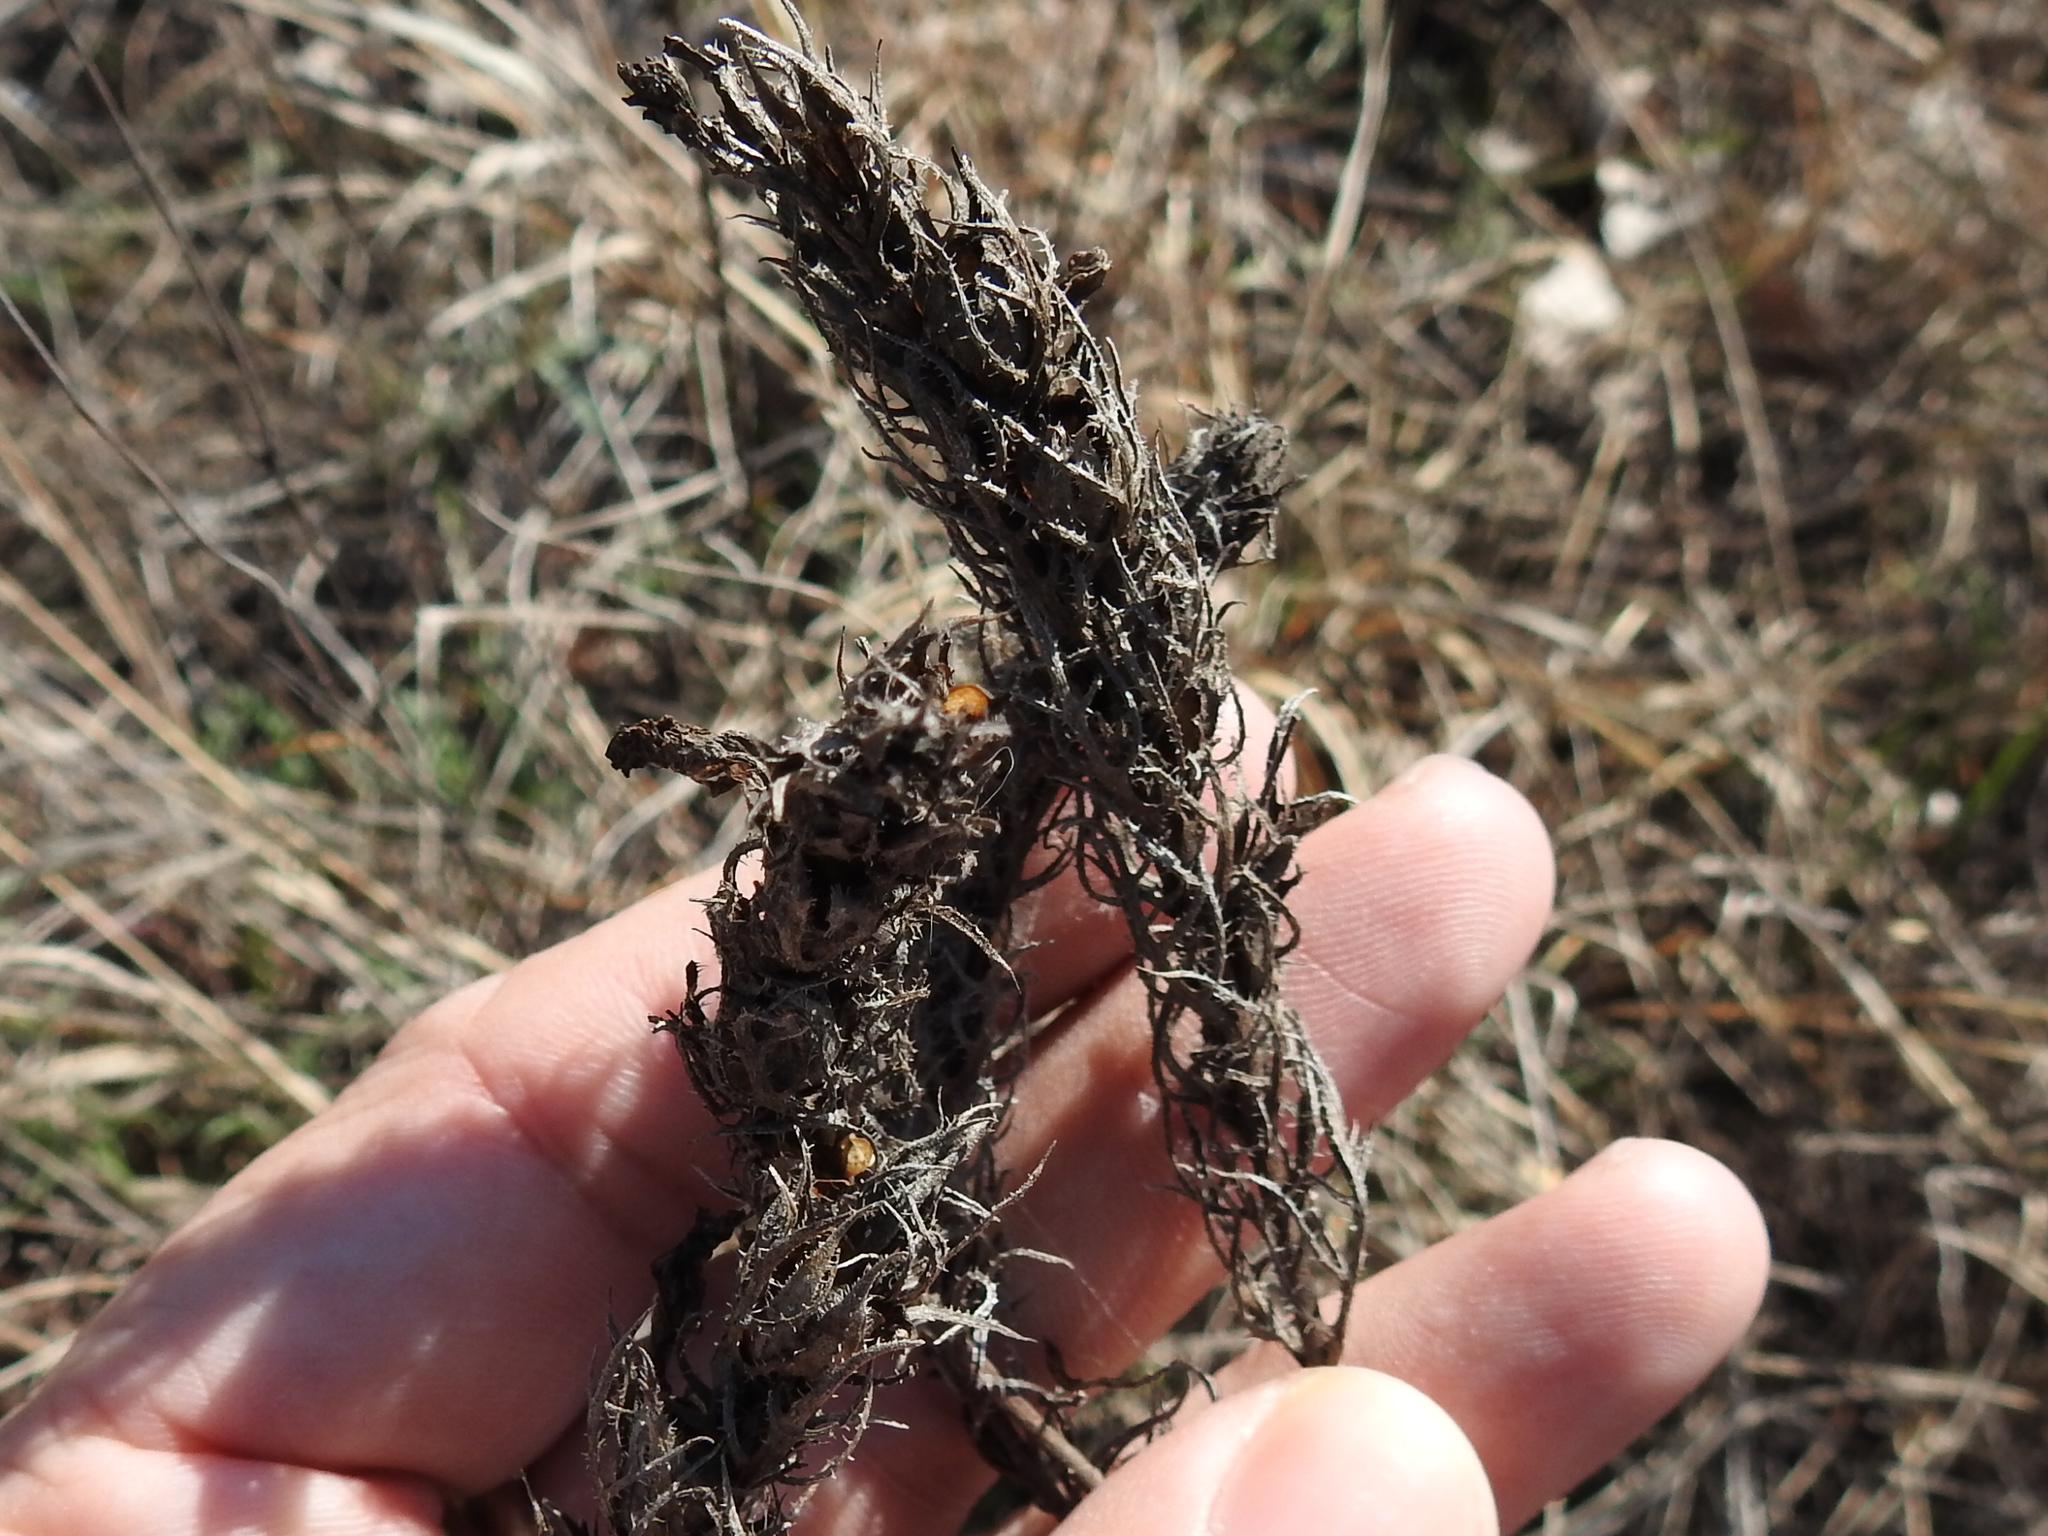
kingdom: Plantae
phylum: Tracheophyta
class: Magnoliopsida
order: Lamiales
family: Orobanchaceae
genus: Agalinis
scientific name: Agalinis densiflora
